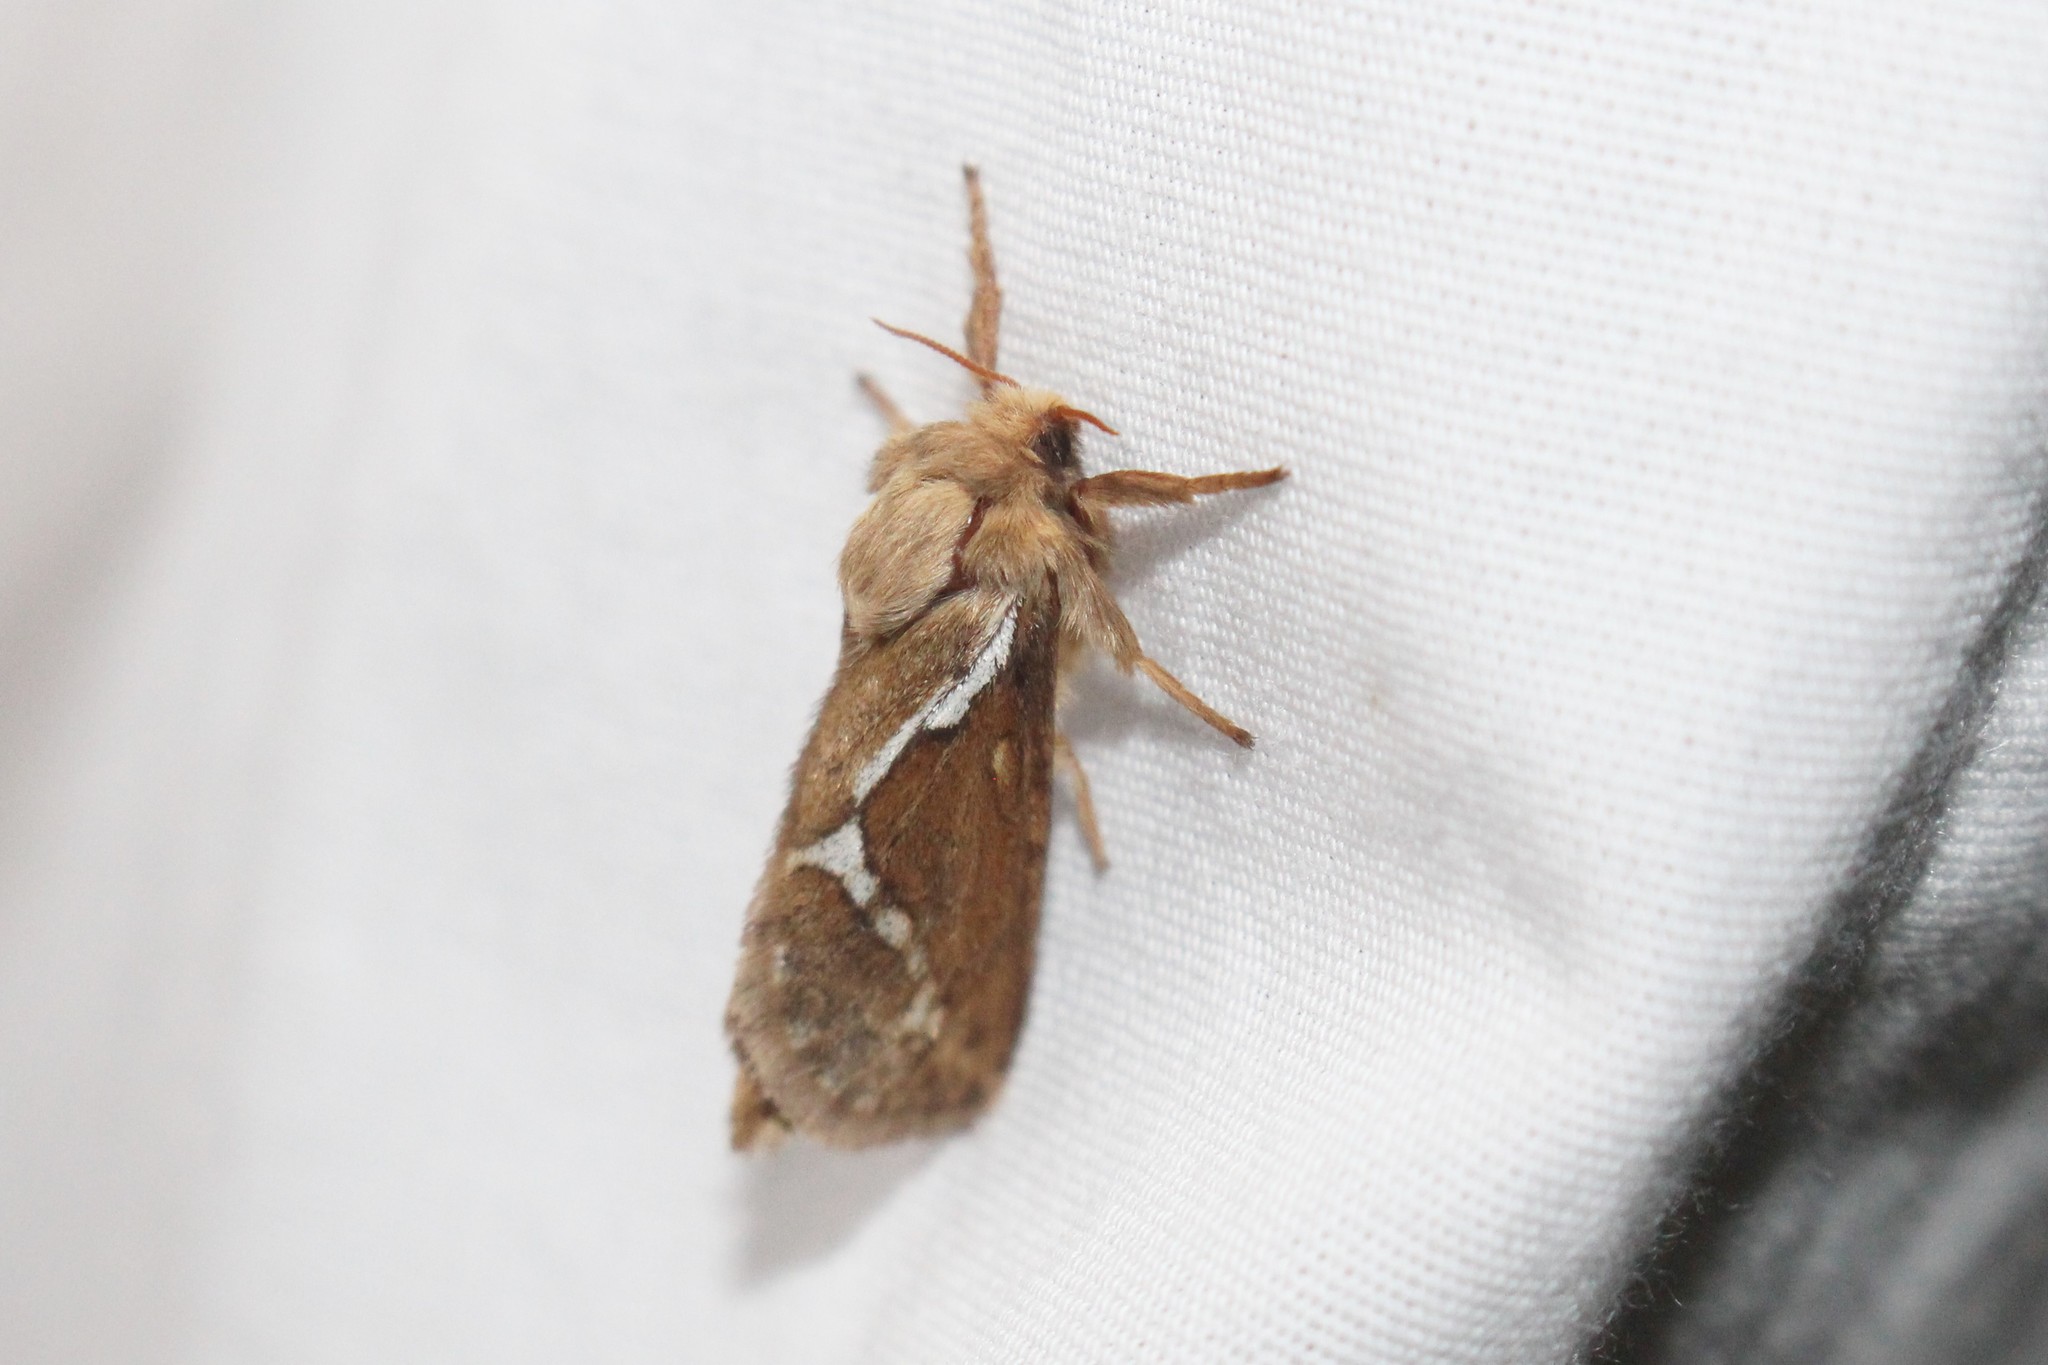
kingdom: Animalia
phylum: Arthropoda
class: Insecta
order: Lepidoptera
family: Hepialidae
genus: Korscheltellus
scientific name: Korscheltellus lupulina
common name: Common swift
